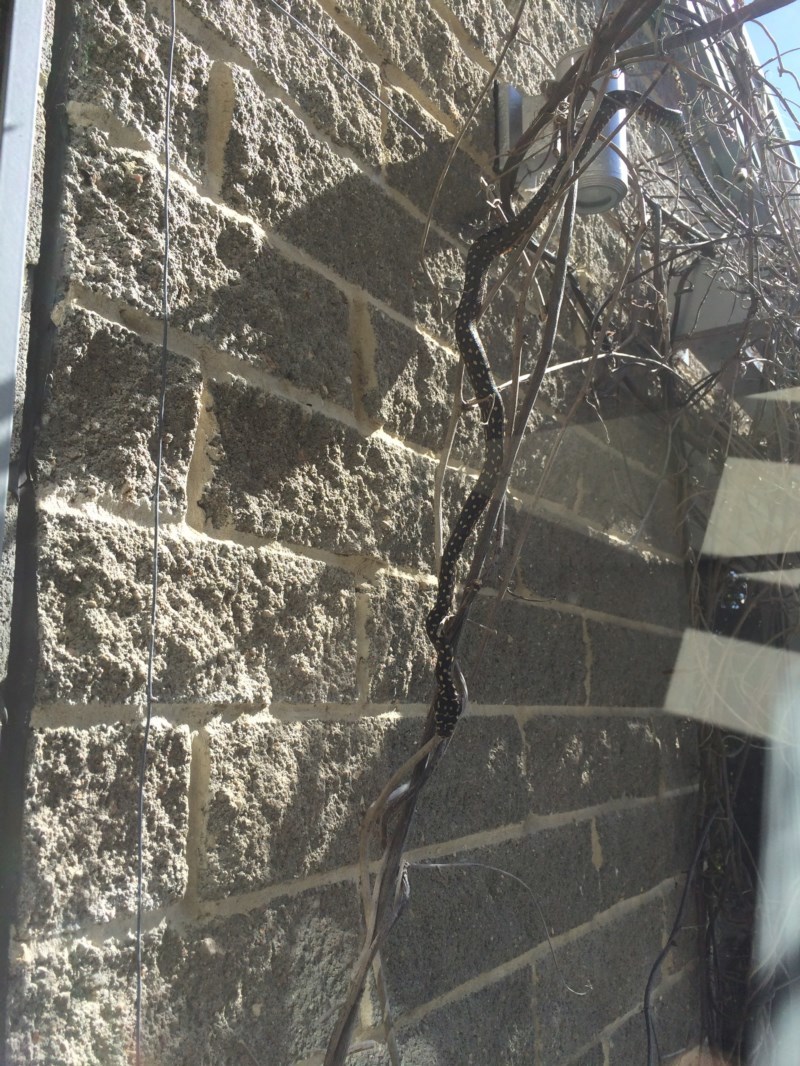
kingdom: Animalia
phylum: Chordata
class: Squamata
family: Pythonidae
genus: Morelia
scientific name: Morelia spilota
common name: Carpet python
